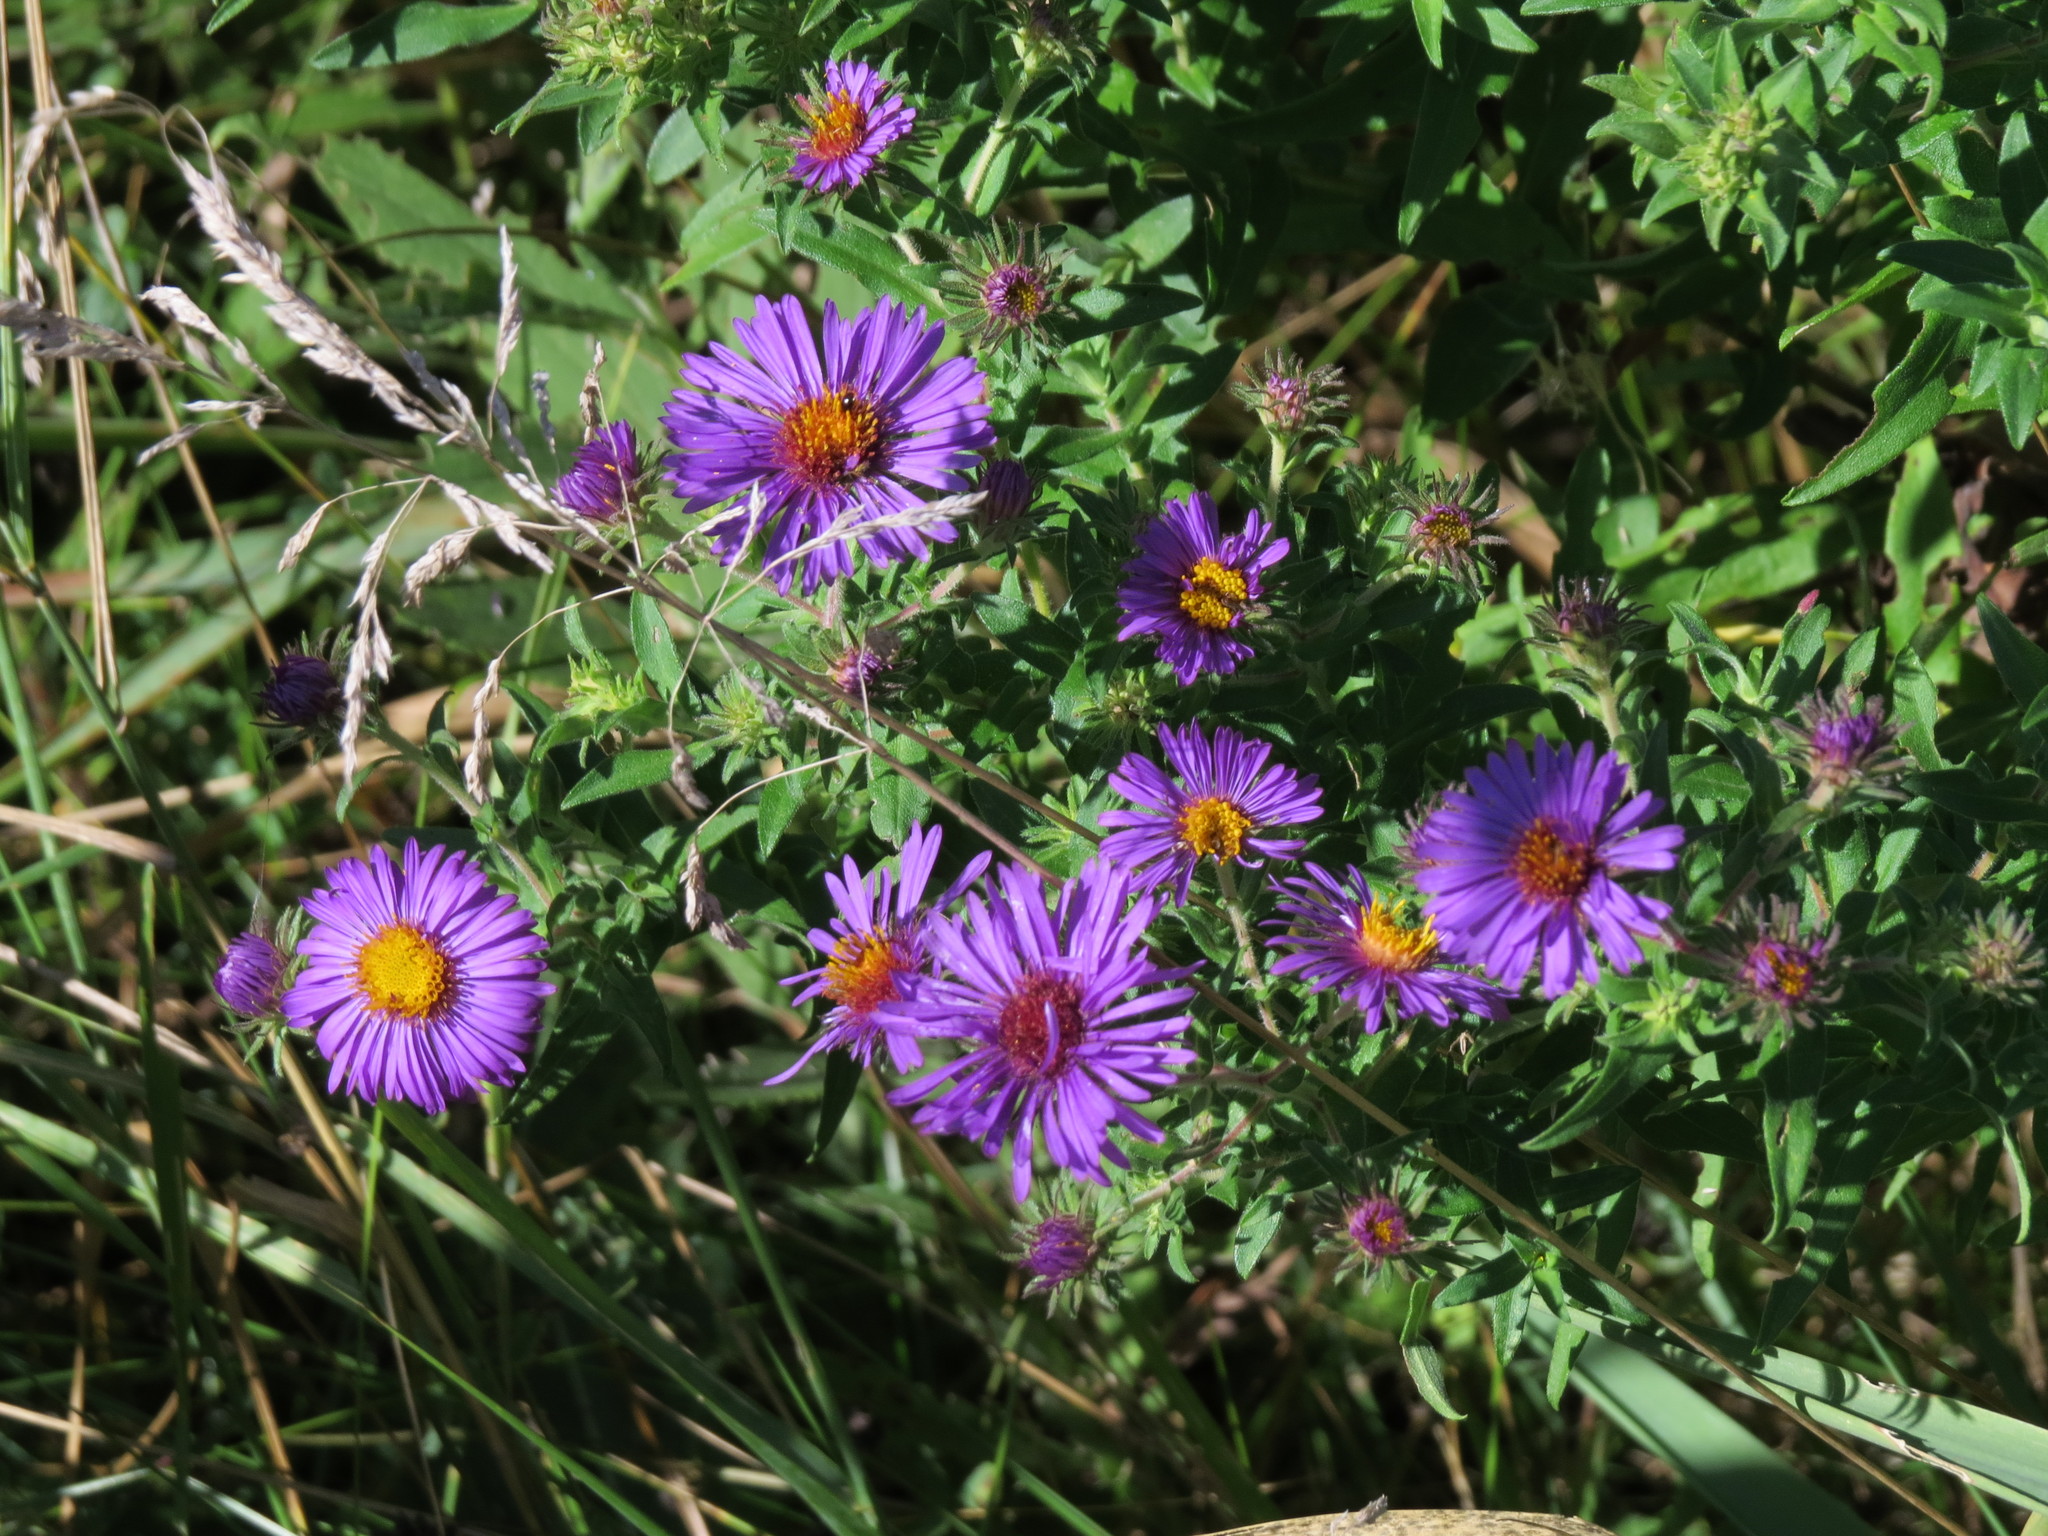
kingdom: Plantae
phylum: Tracheophyta
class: Magnoliopsida
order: Asterales
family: Asteraceae
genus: Symphyotrichum
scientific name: Symphyotrichum novae-angliae
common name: Michaelmas daisy
